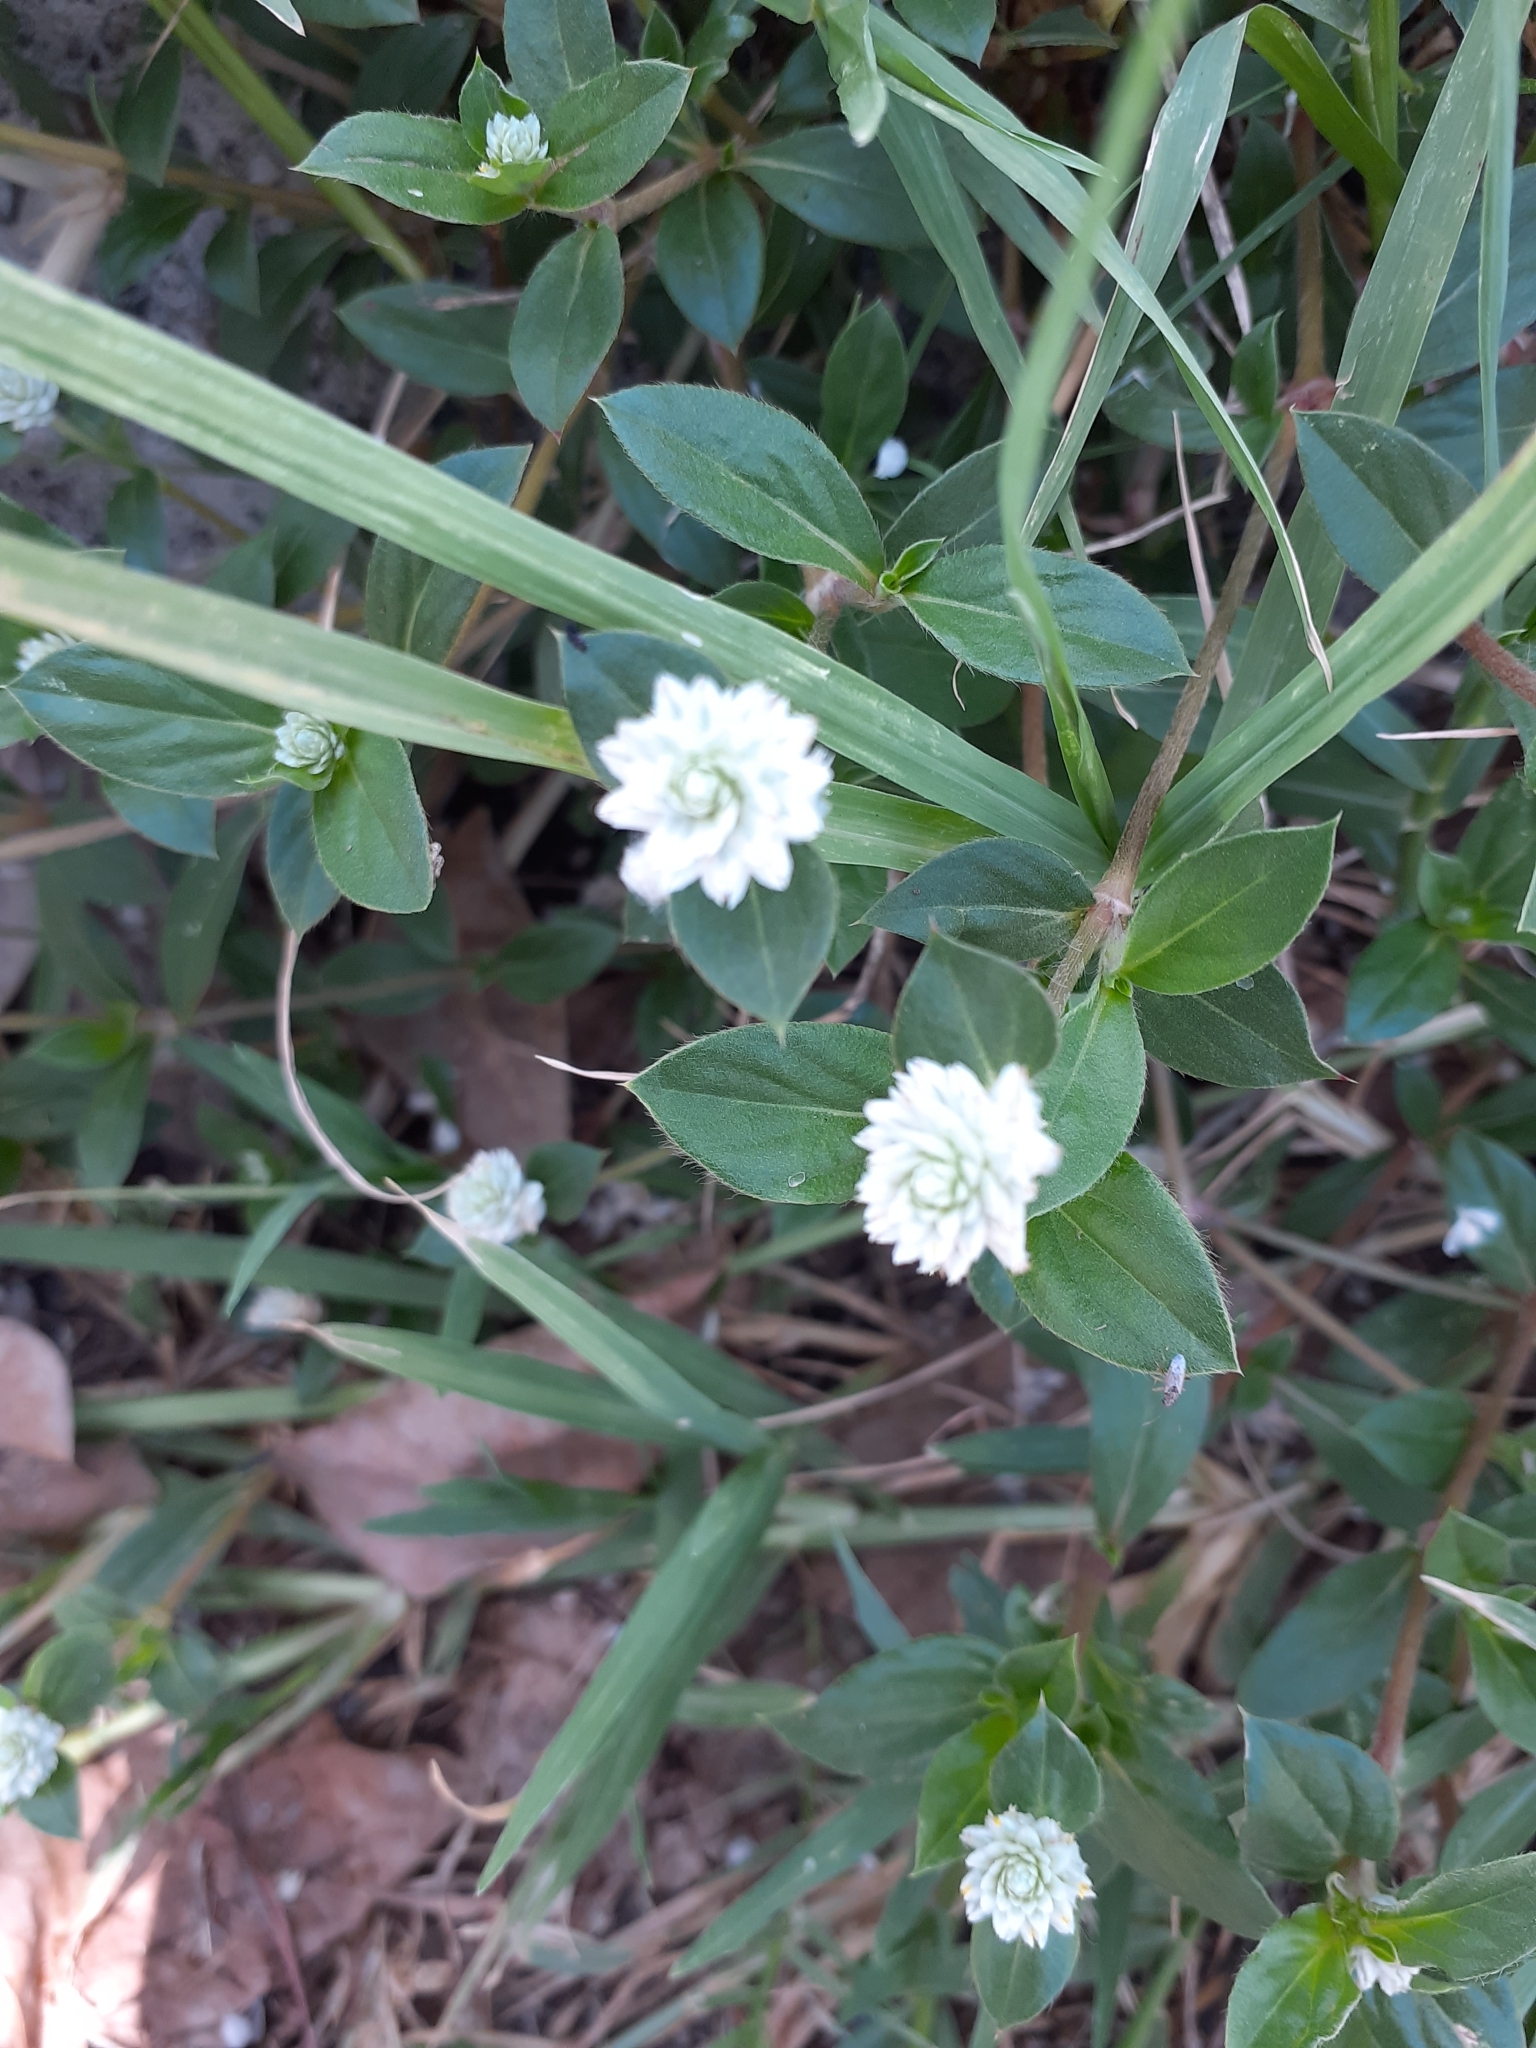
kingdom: Plantae
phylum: Tracheophyta
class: Magnoliopsida
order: Caryophyllales
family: Amaranthaceae
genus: Gomphrena
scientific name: Gomphrena serrata
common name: Arrasa con todo
